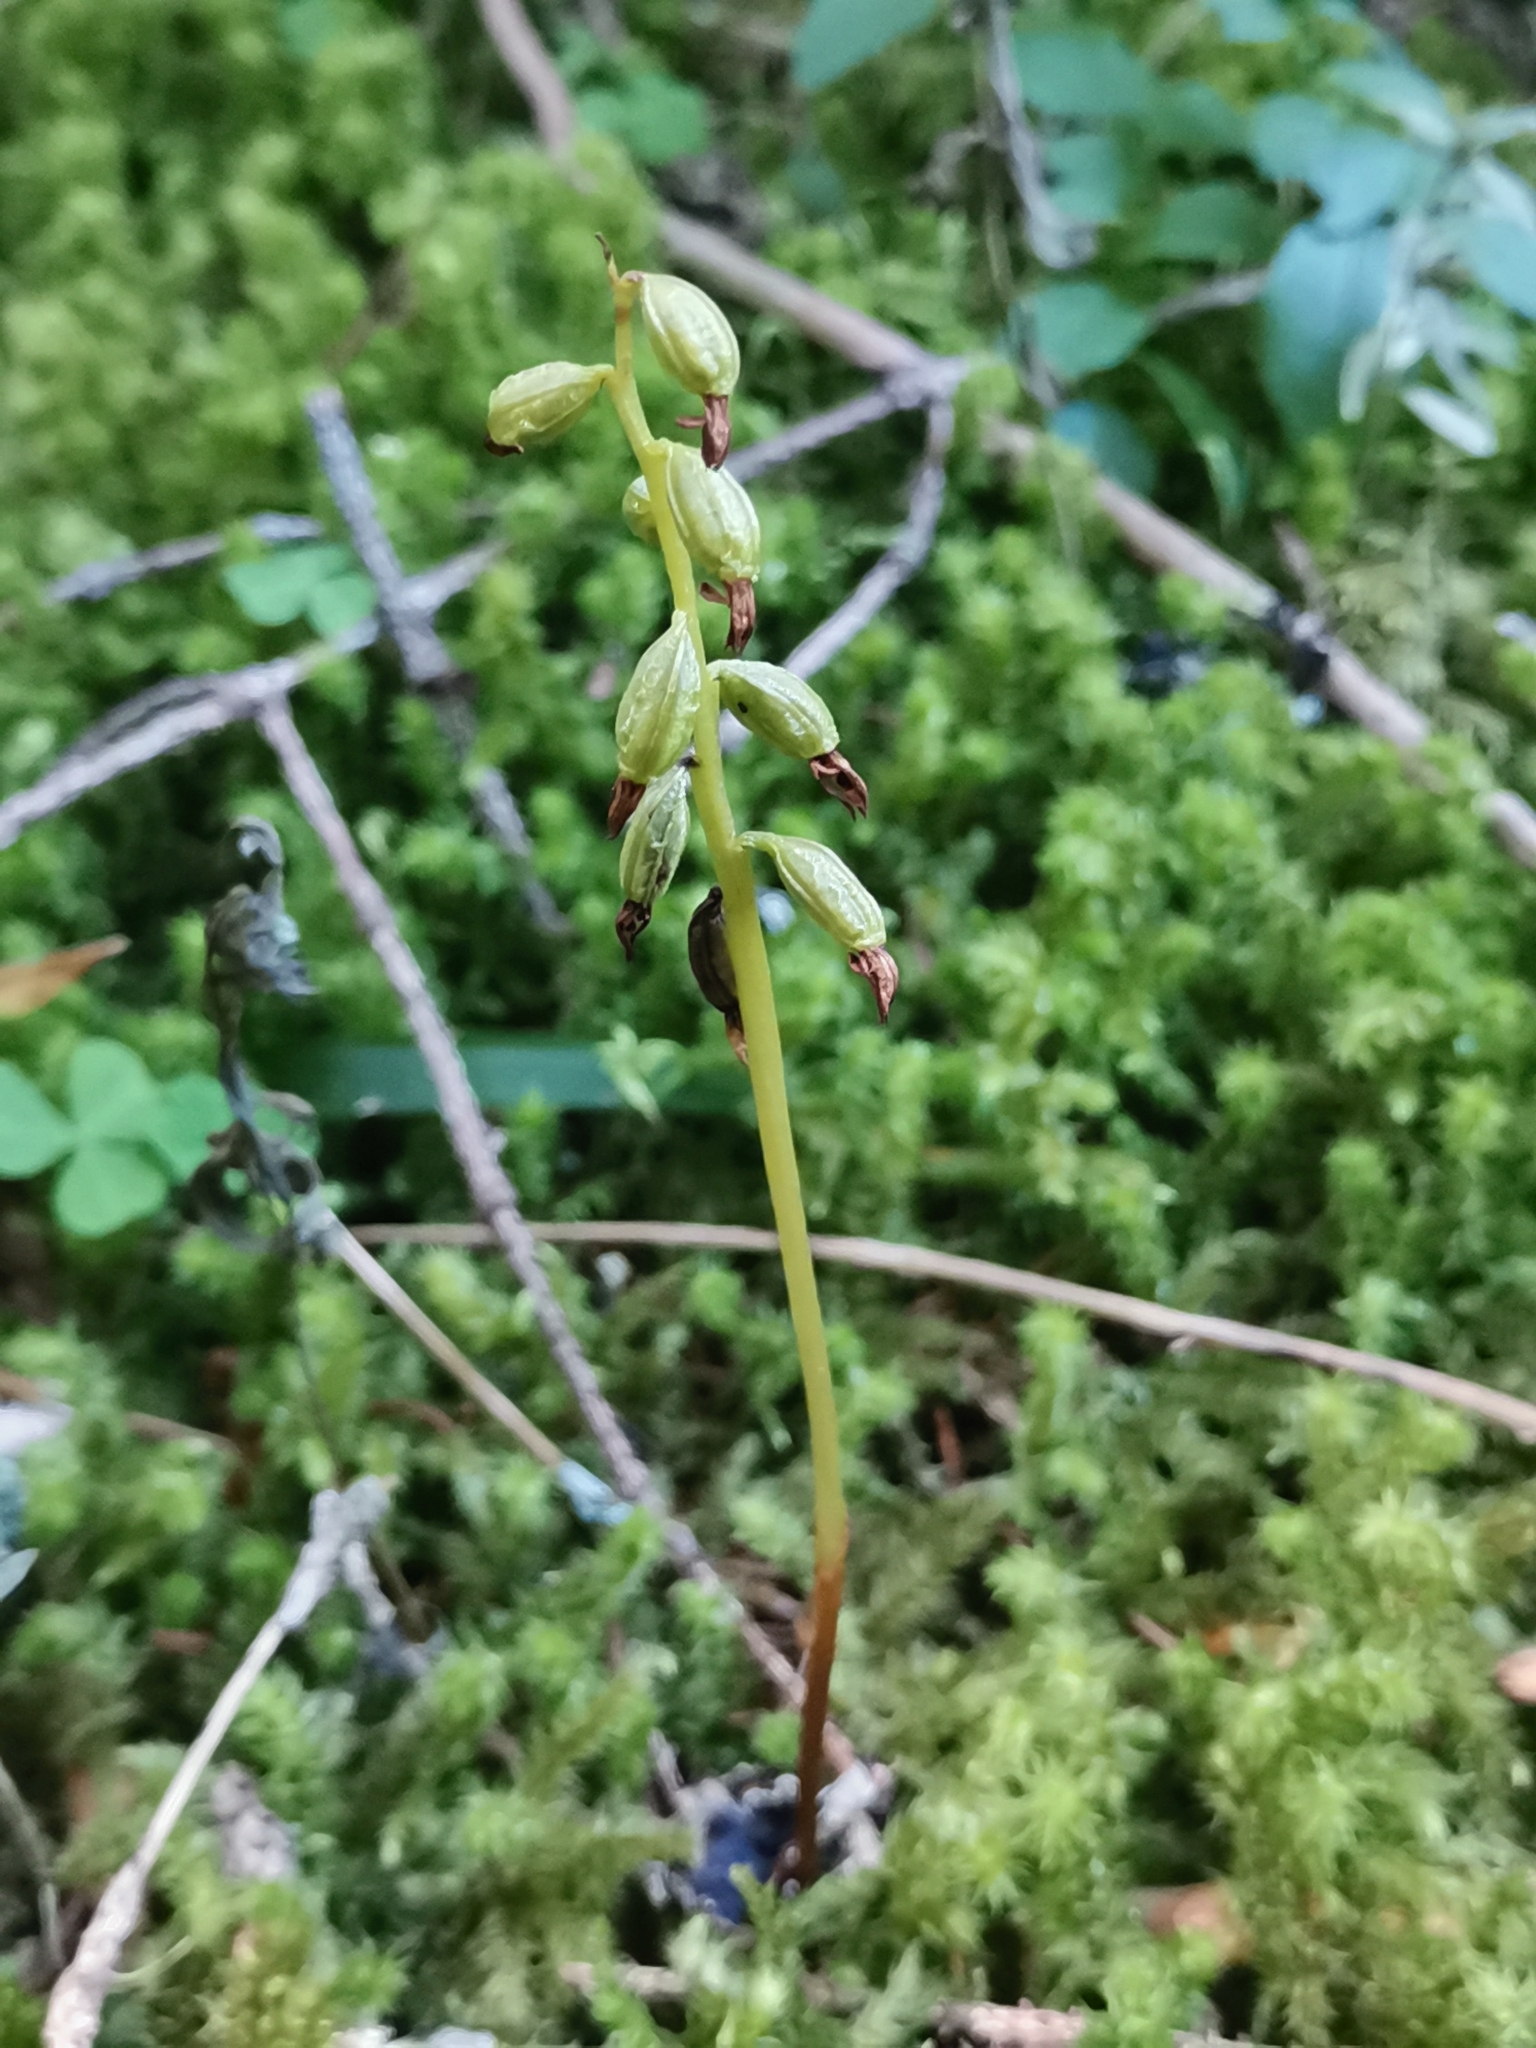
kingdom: Plantae
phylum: Tracheophyta
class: Liliopsida
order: Asparagales
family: Orchidaceae
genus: Corallorhiza
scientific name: Corallorhiza trifida
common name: Yellow coralroot
